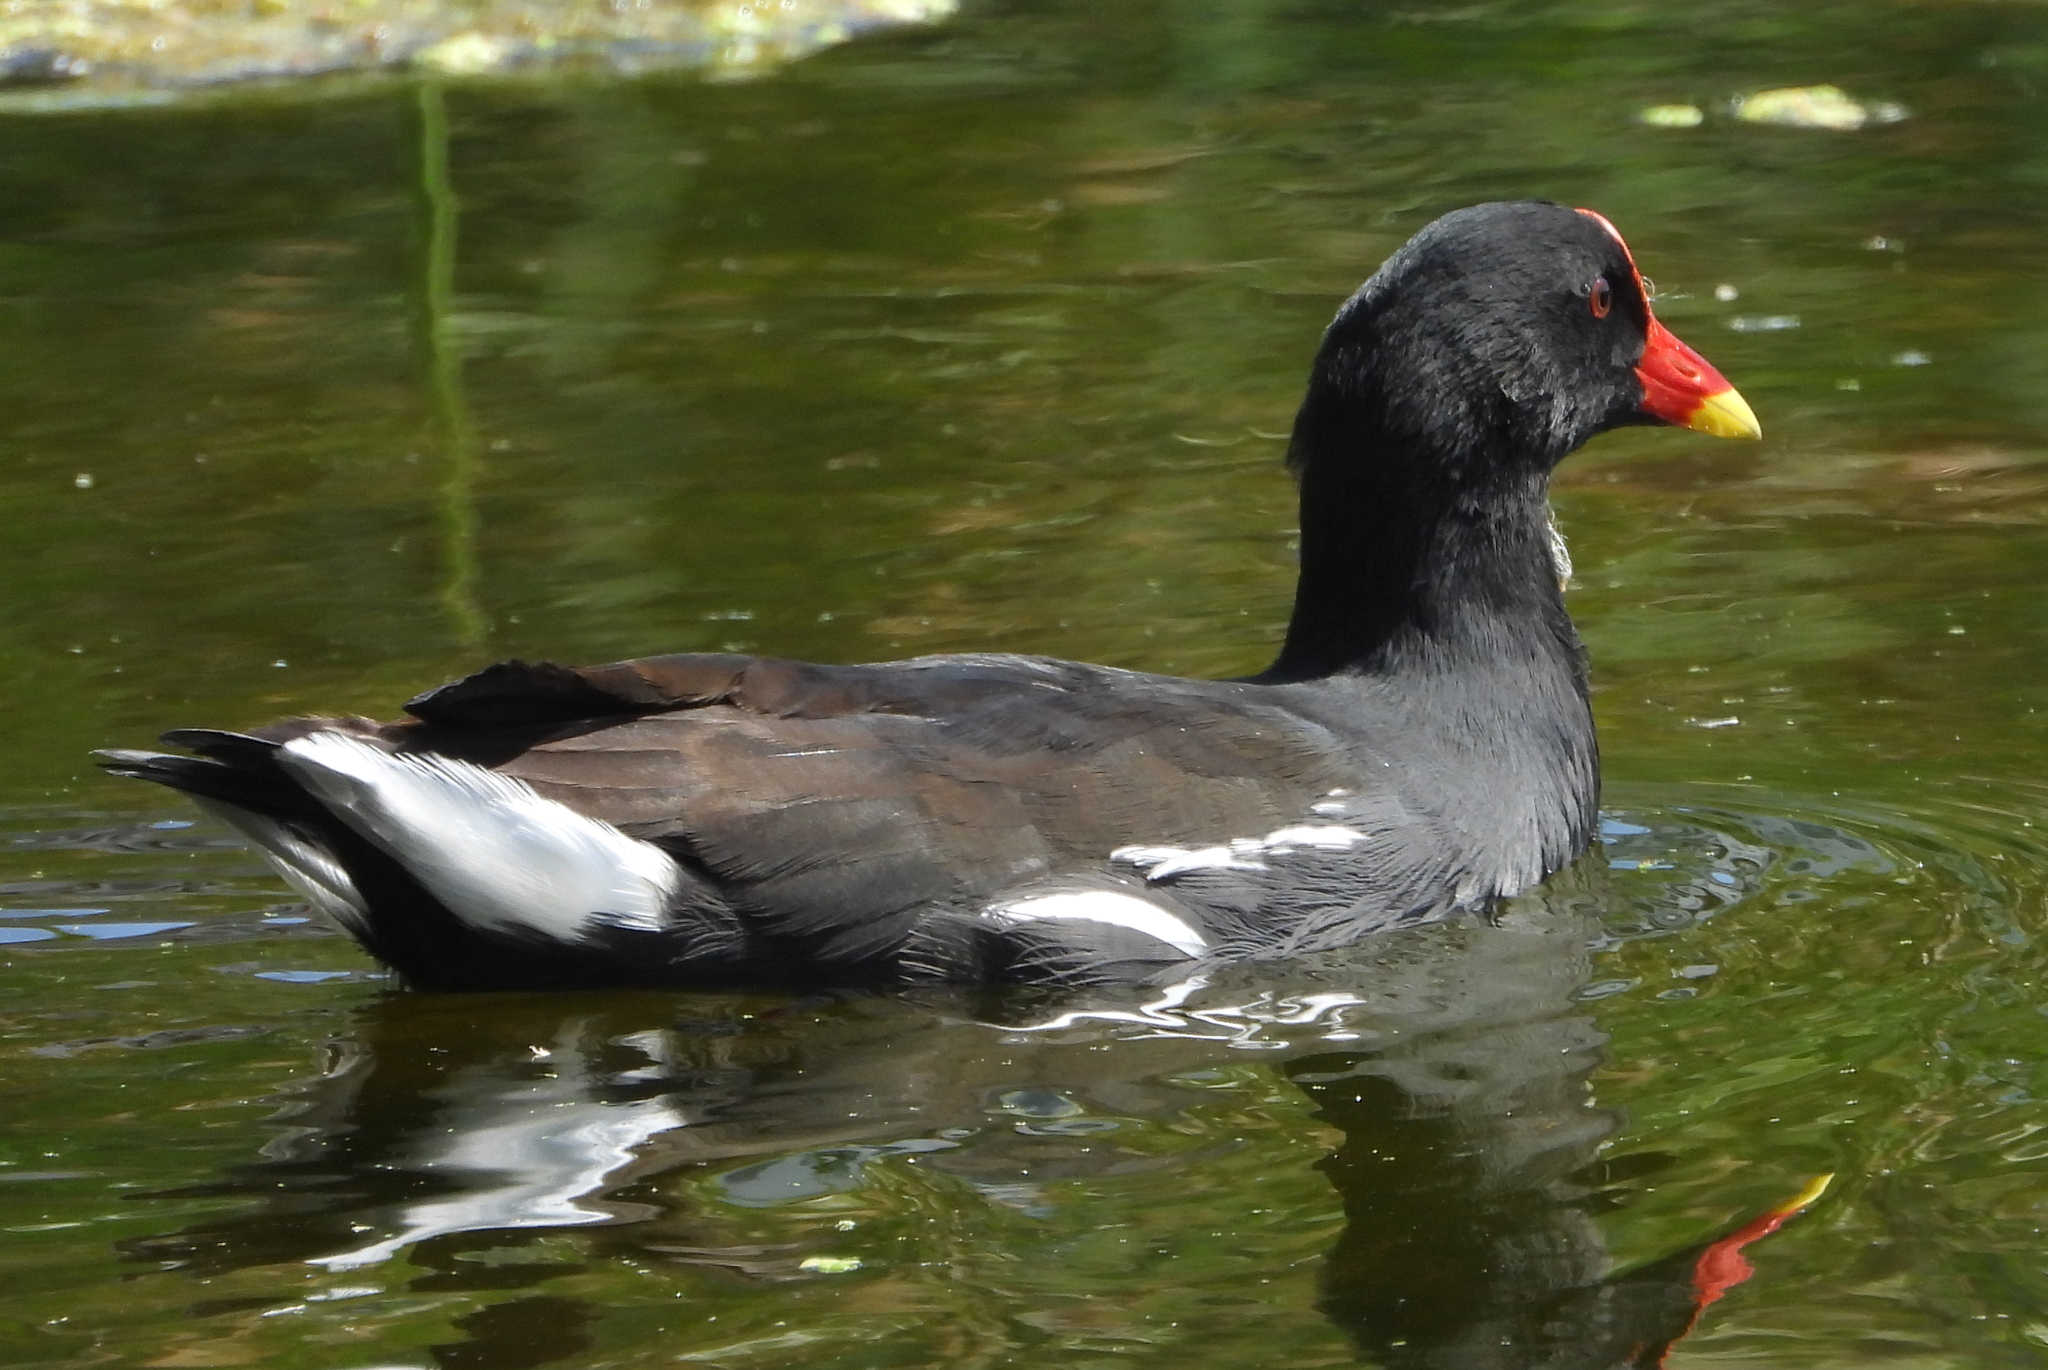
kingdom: Animalia
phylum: Chordata
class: Aves
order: Gruiformes
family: Rallidae
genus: Gallinula
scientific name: Gallinula chloropus
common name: Common moorhen
